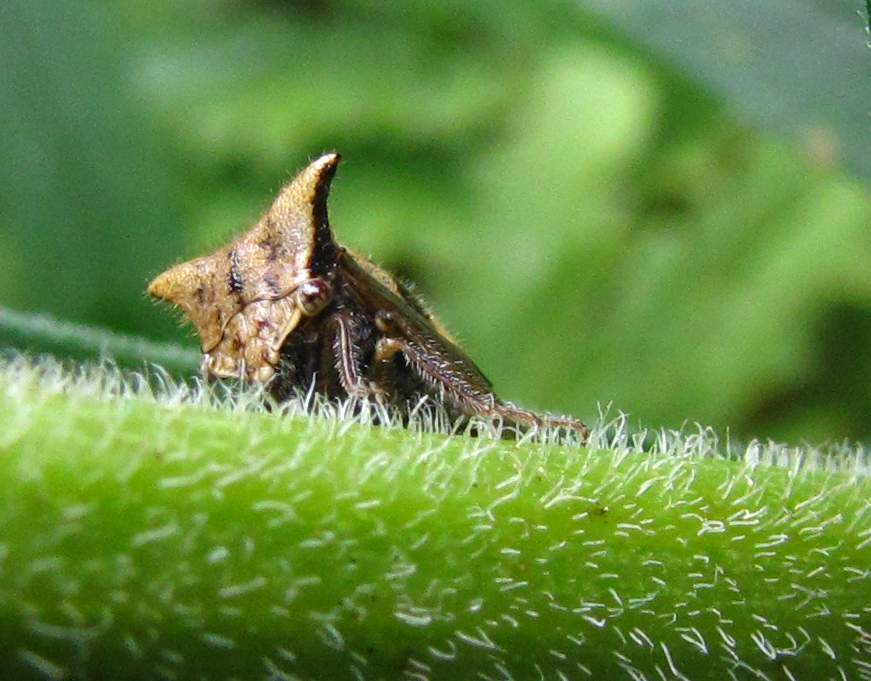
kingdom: Animalia
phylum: Arthropoda
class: Insecta
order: Hemiptera
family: Membracidae
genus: Stictocephala
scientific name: Stictocephala diceros
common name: Two-horned treehopper
